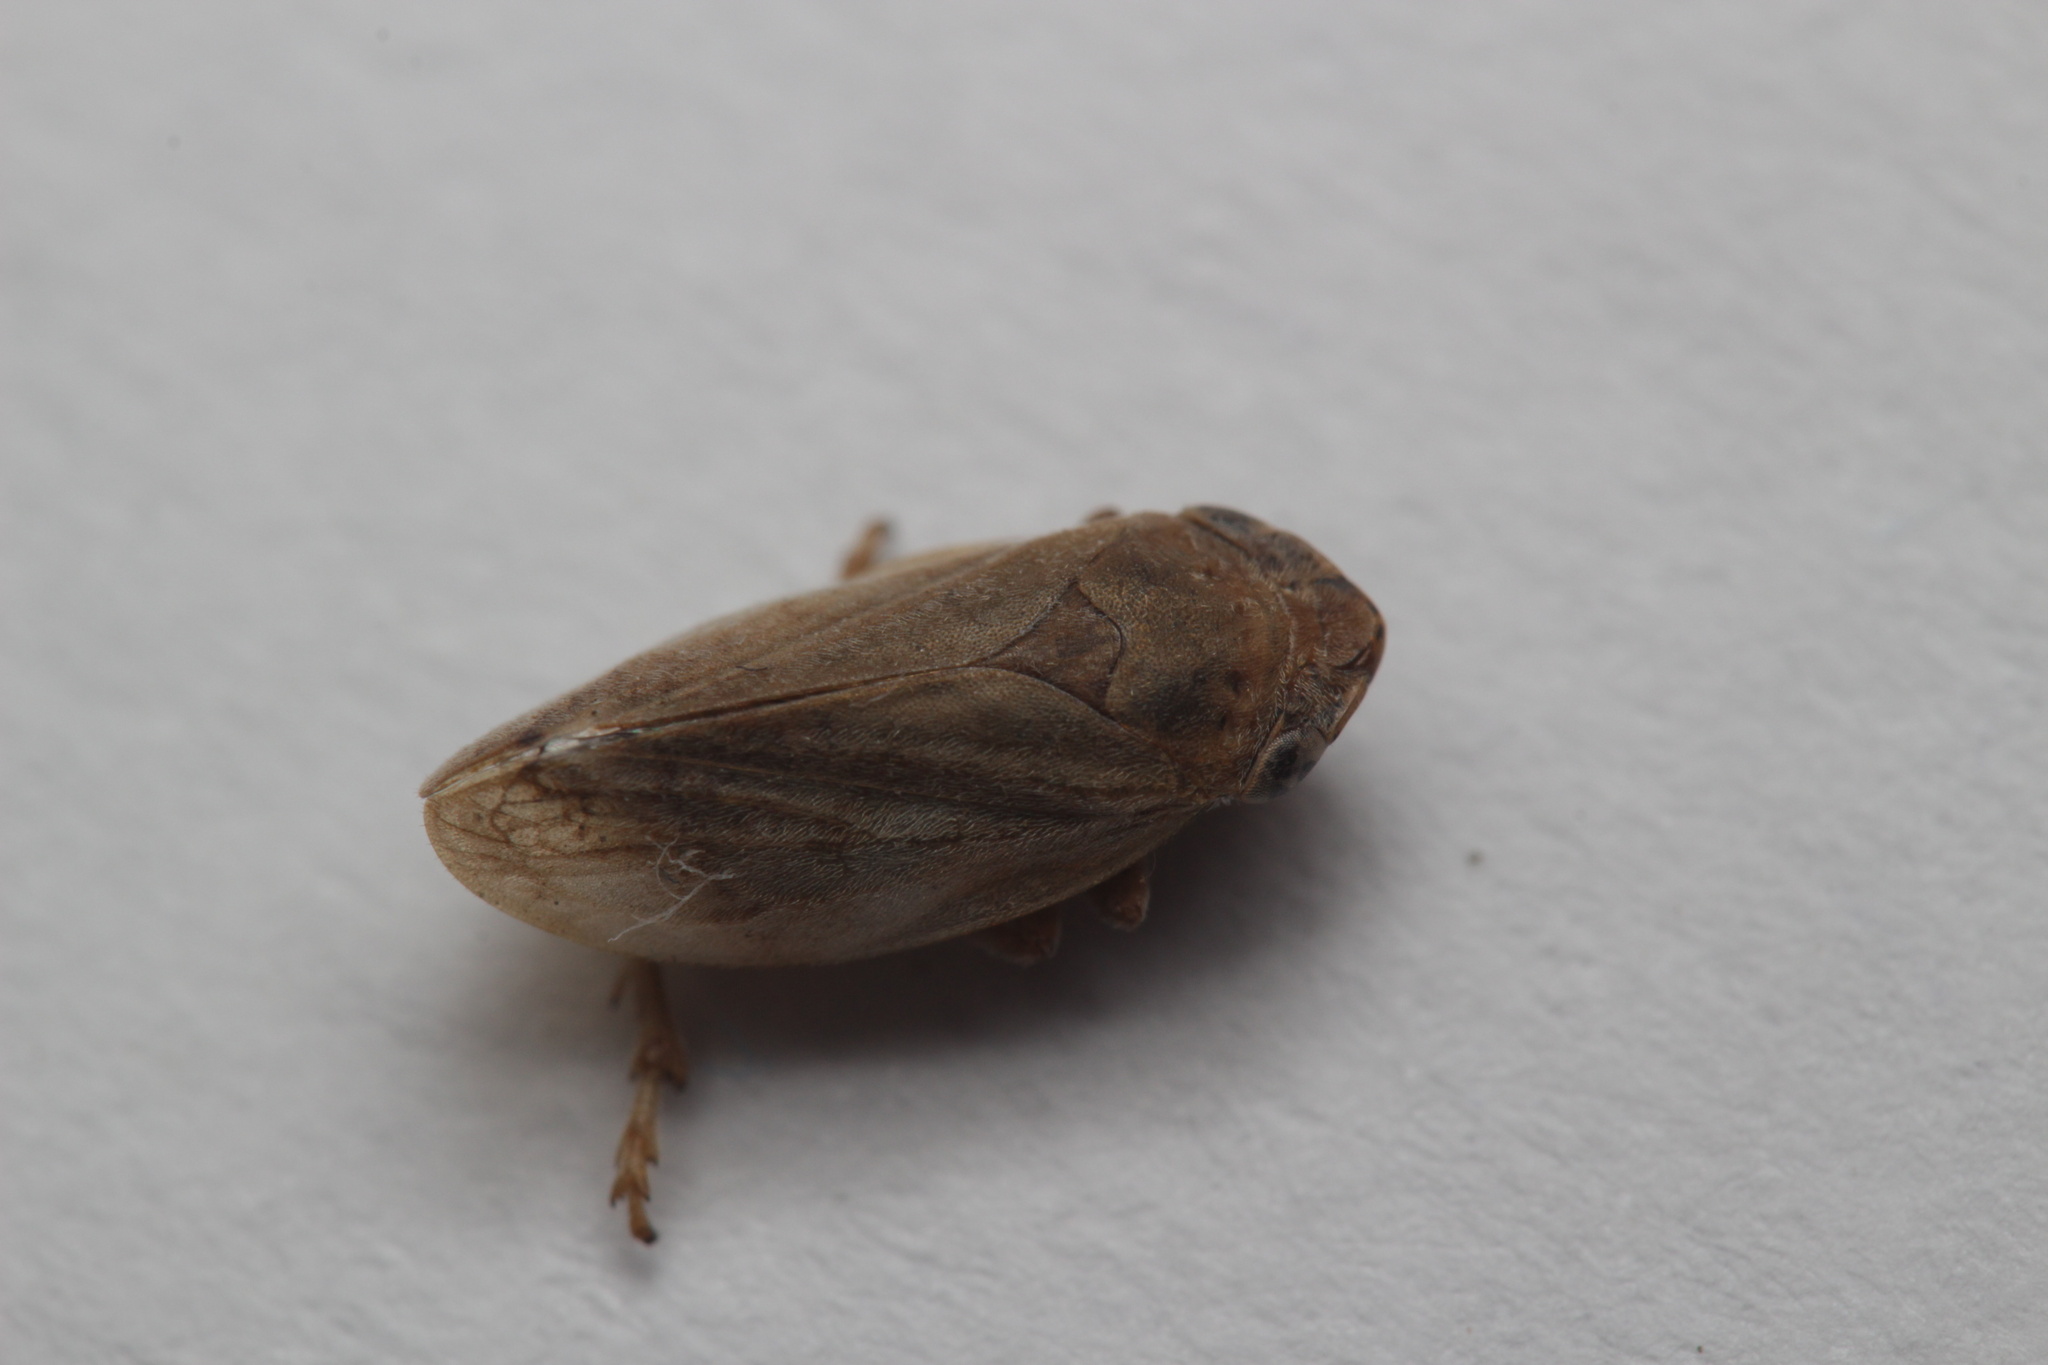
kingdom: Animalia
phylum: Arthropoda
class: Insecta
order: Hemiptera
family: Aphrophoridae
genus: Philaenus
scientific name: Philaenus spumarius
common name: Meadow spittlebug
